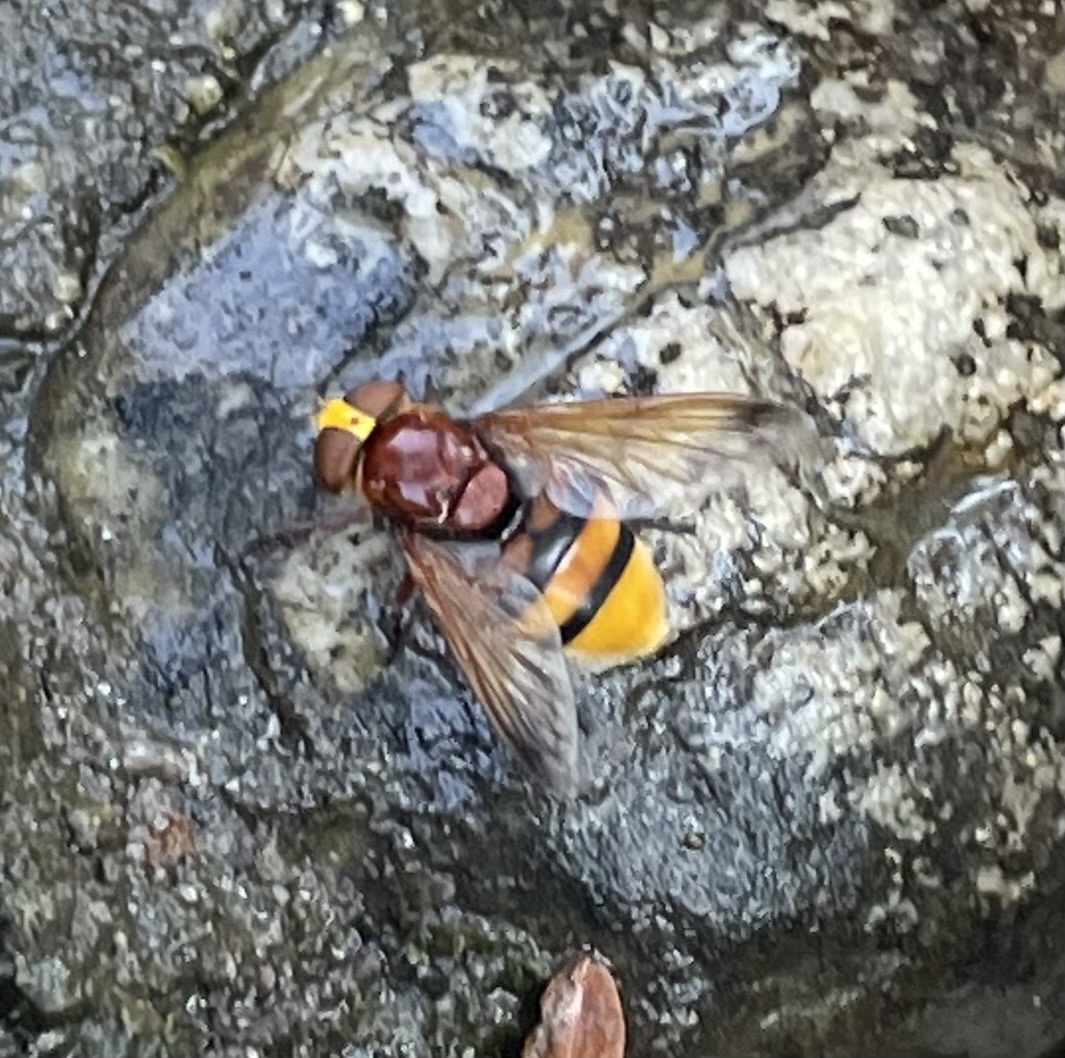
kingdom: Animalia
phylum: Arthropoda
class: Insecta
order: Diptera
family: Syrphidae
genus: Volucella
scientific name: Volucella zonaria
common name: Hornet hoverfly
